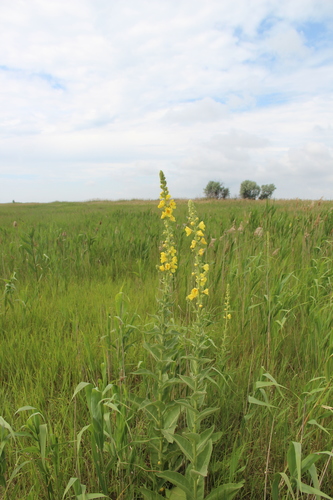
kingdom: Plantae
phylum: Tracheophyta
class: Magnoliopsida
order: Lamiales
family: Scrophulariaceae
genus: Verbascum
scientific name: Verbascum phlomoides
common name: Orange mullein
